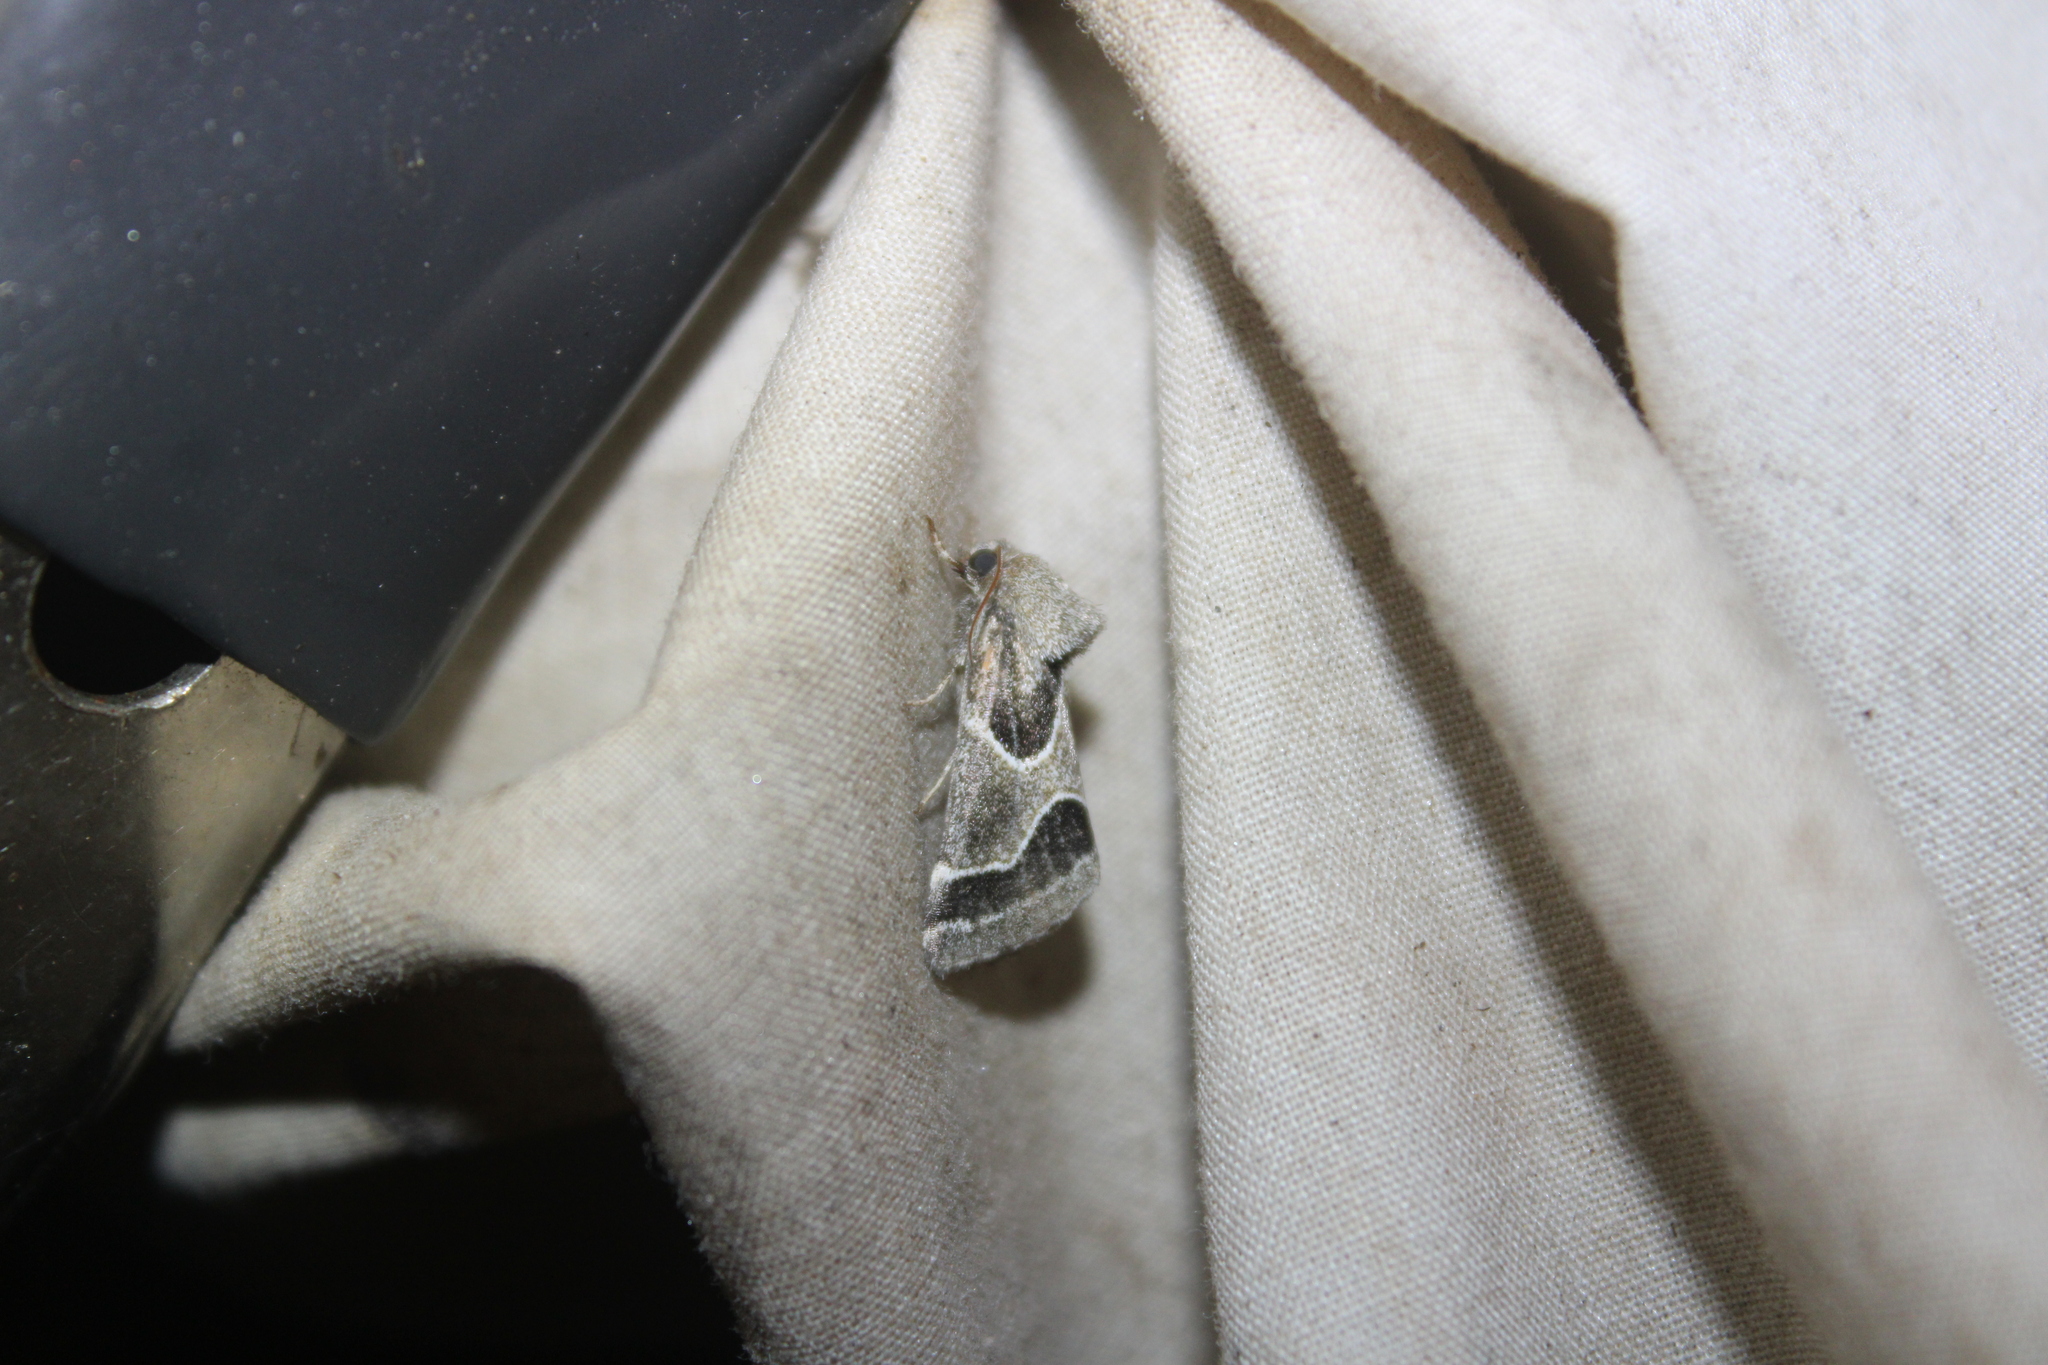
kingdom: Animalia
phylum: Arthropoda
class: Insecta
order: Lepidoptera
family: Noctuidae
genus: Schinia
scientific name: Schinia rivulosa
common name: Scarce meal-moth
